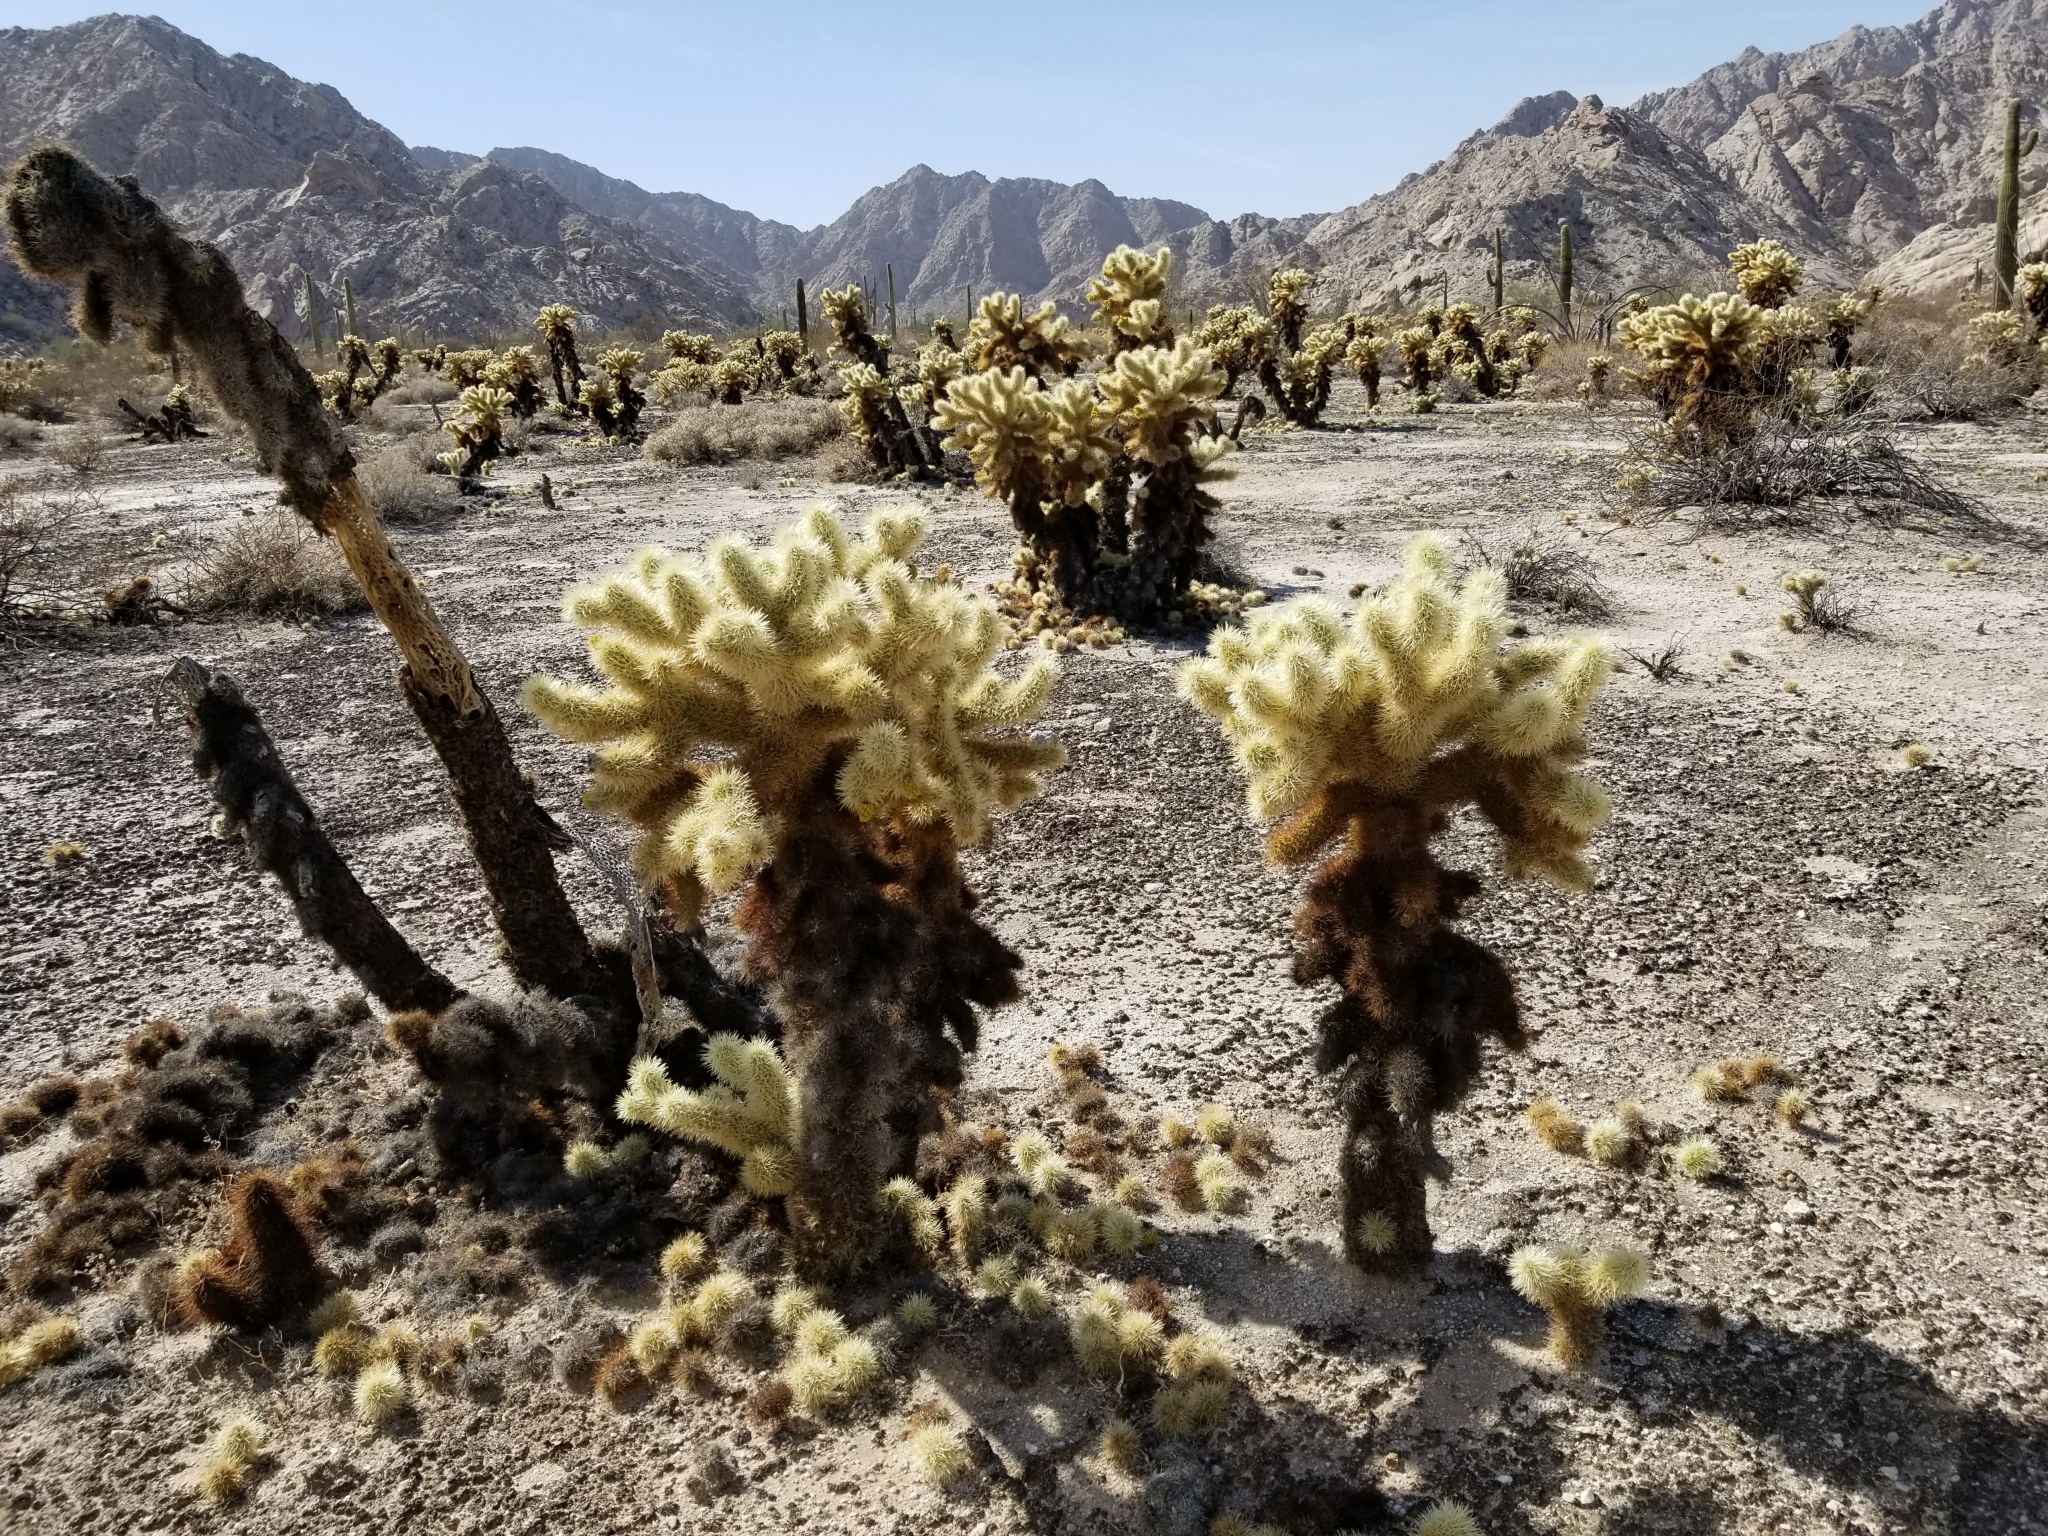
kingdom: Plantae
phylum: Tracheophyta
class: Magnoliopsida
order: Caryophyllales
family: Cactaceae
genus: Cylindropuntia
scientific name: Cylindropuntia fosbergii
